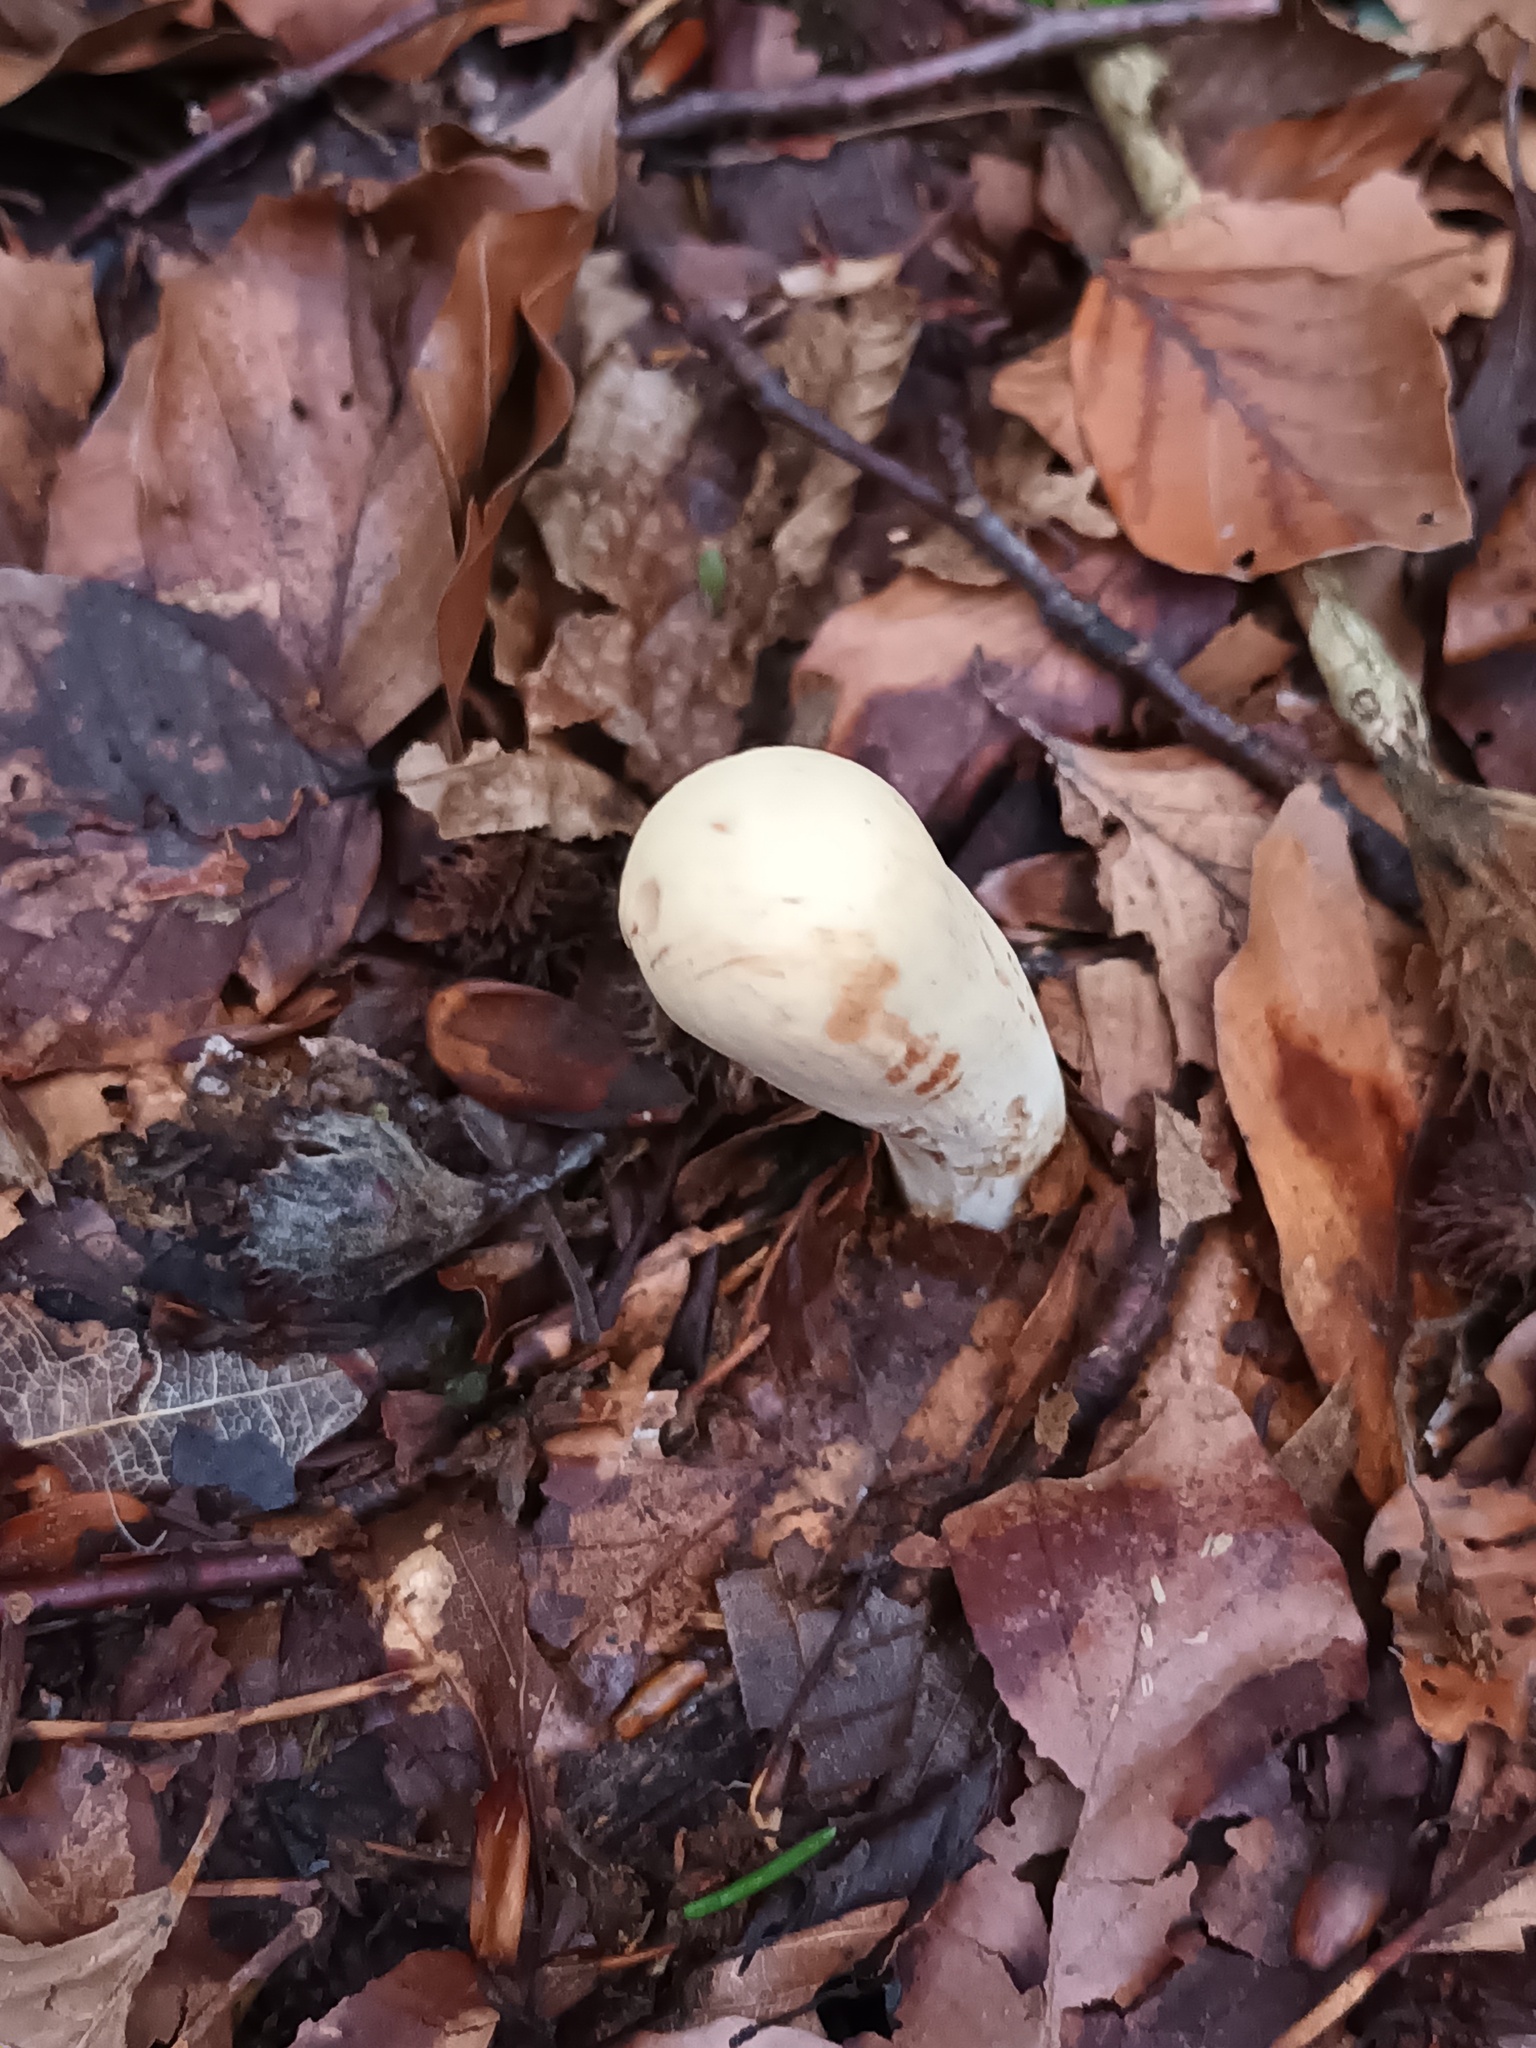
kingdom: Fungi
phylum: Basidiomycota
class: Agaricomycetes
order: Gomphales
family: Clavariadelphaceae
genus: Clavariadelphus
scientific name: Clavariadelphus pistillaris
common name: Giant club
